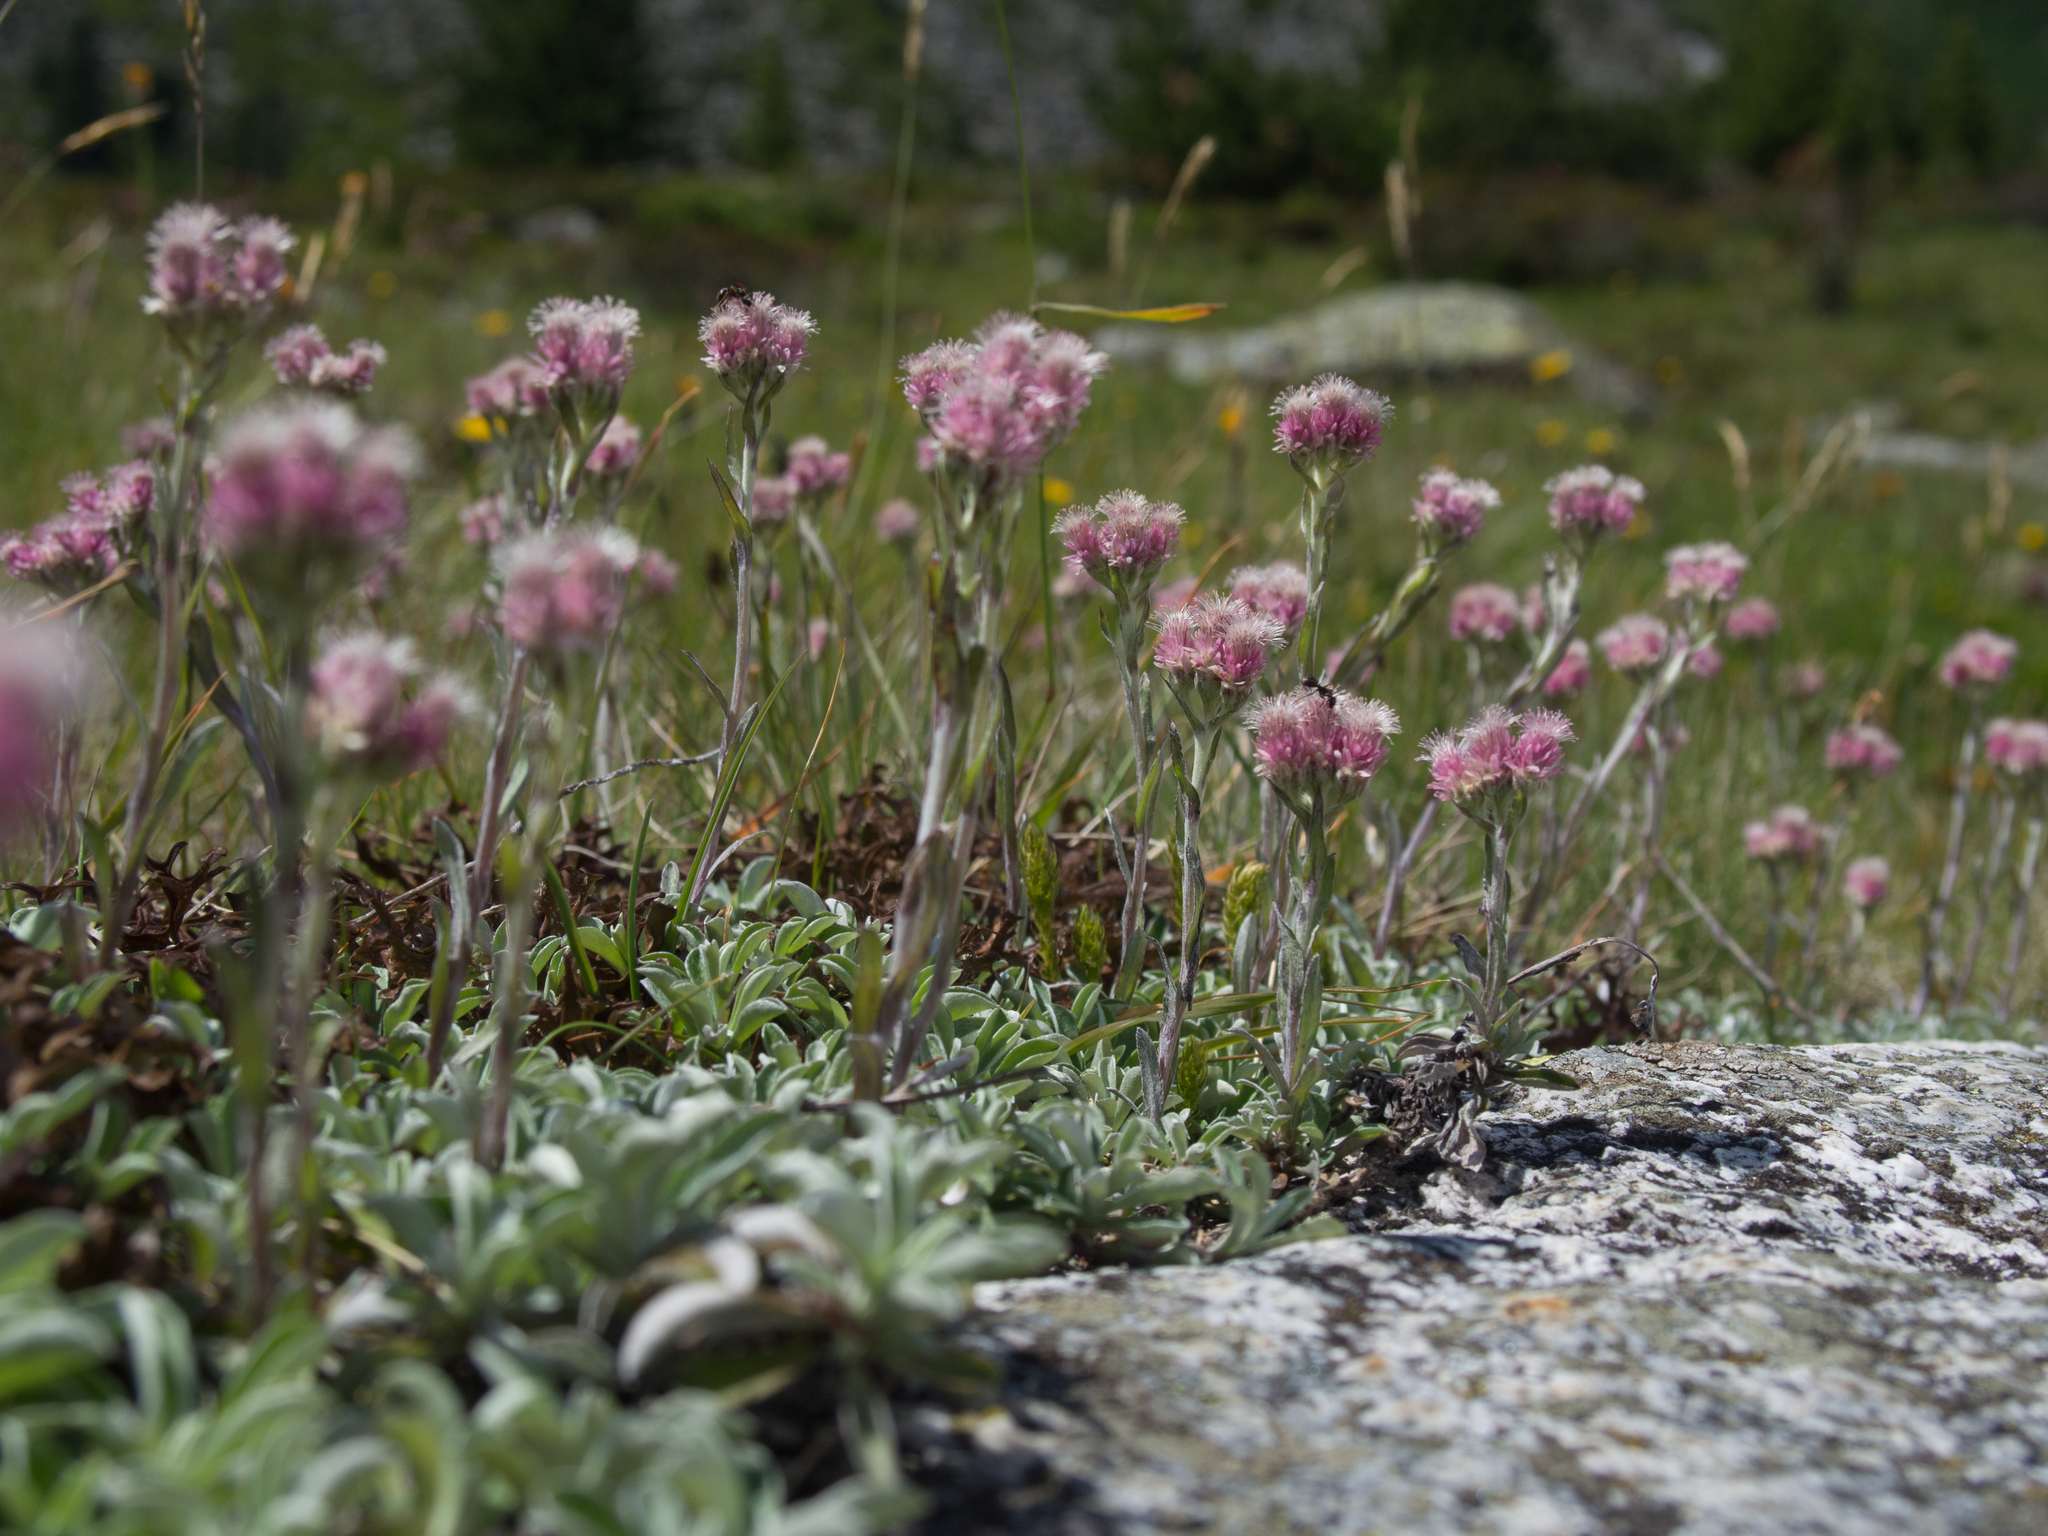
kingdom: Plantae
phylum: Tracheophyta
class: Magnoliopsida
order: Asterales
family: Asteraceae
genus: Antennaria
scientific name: Antennaria dioica
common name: Mountain everlasting
